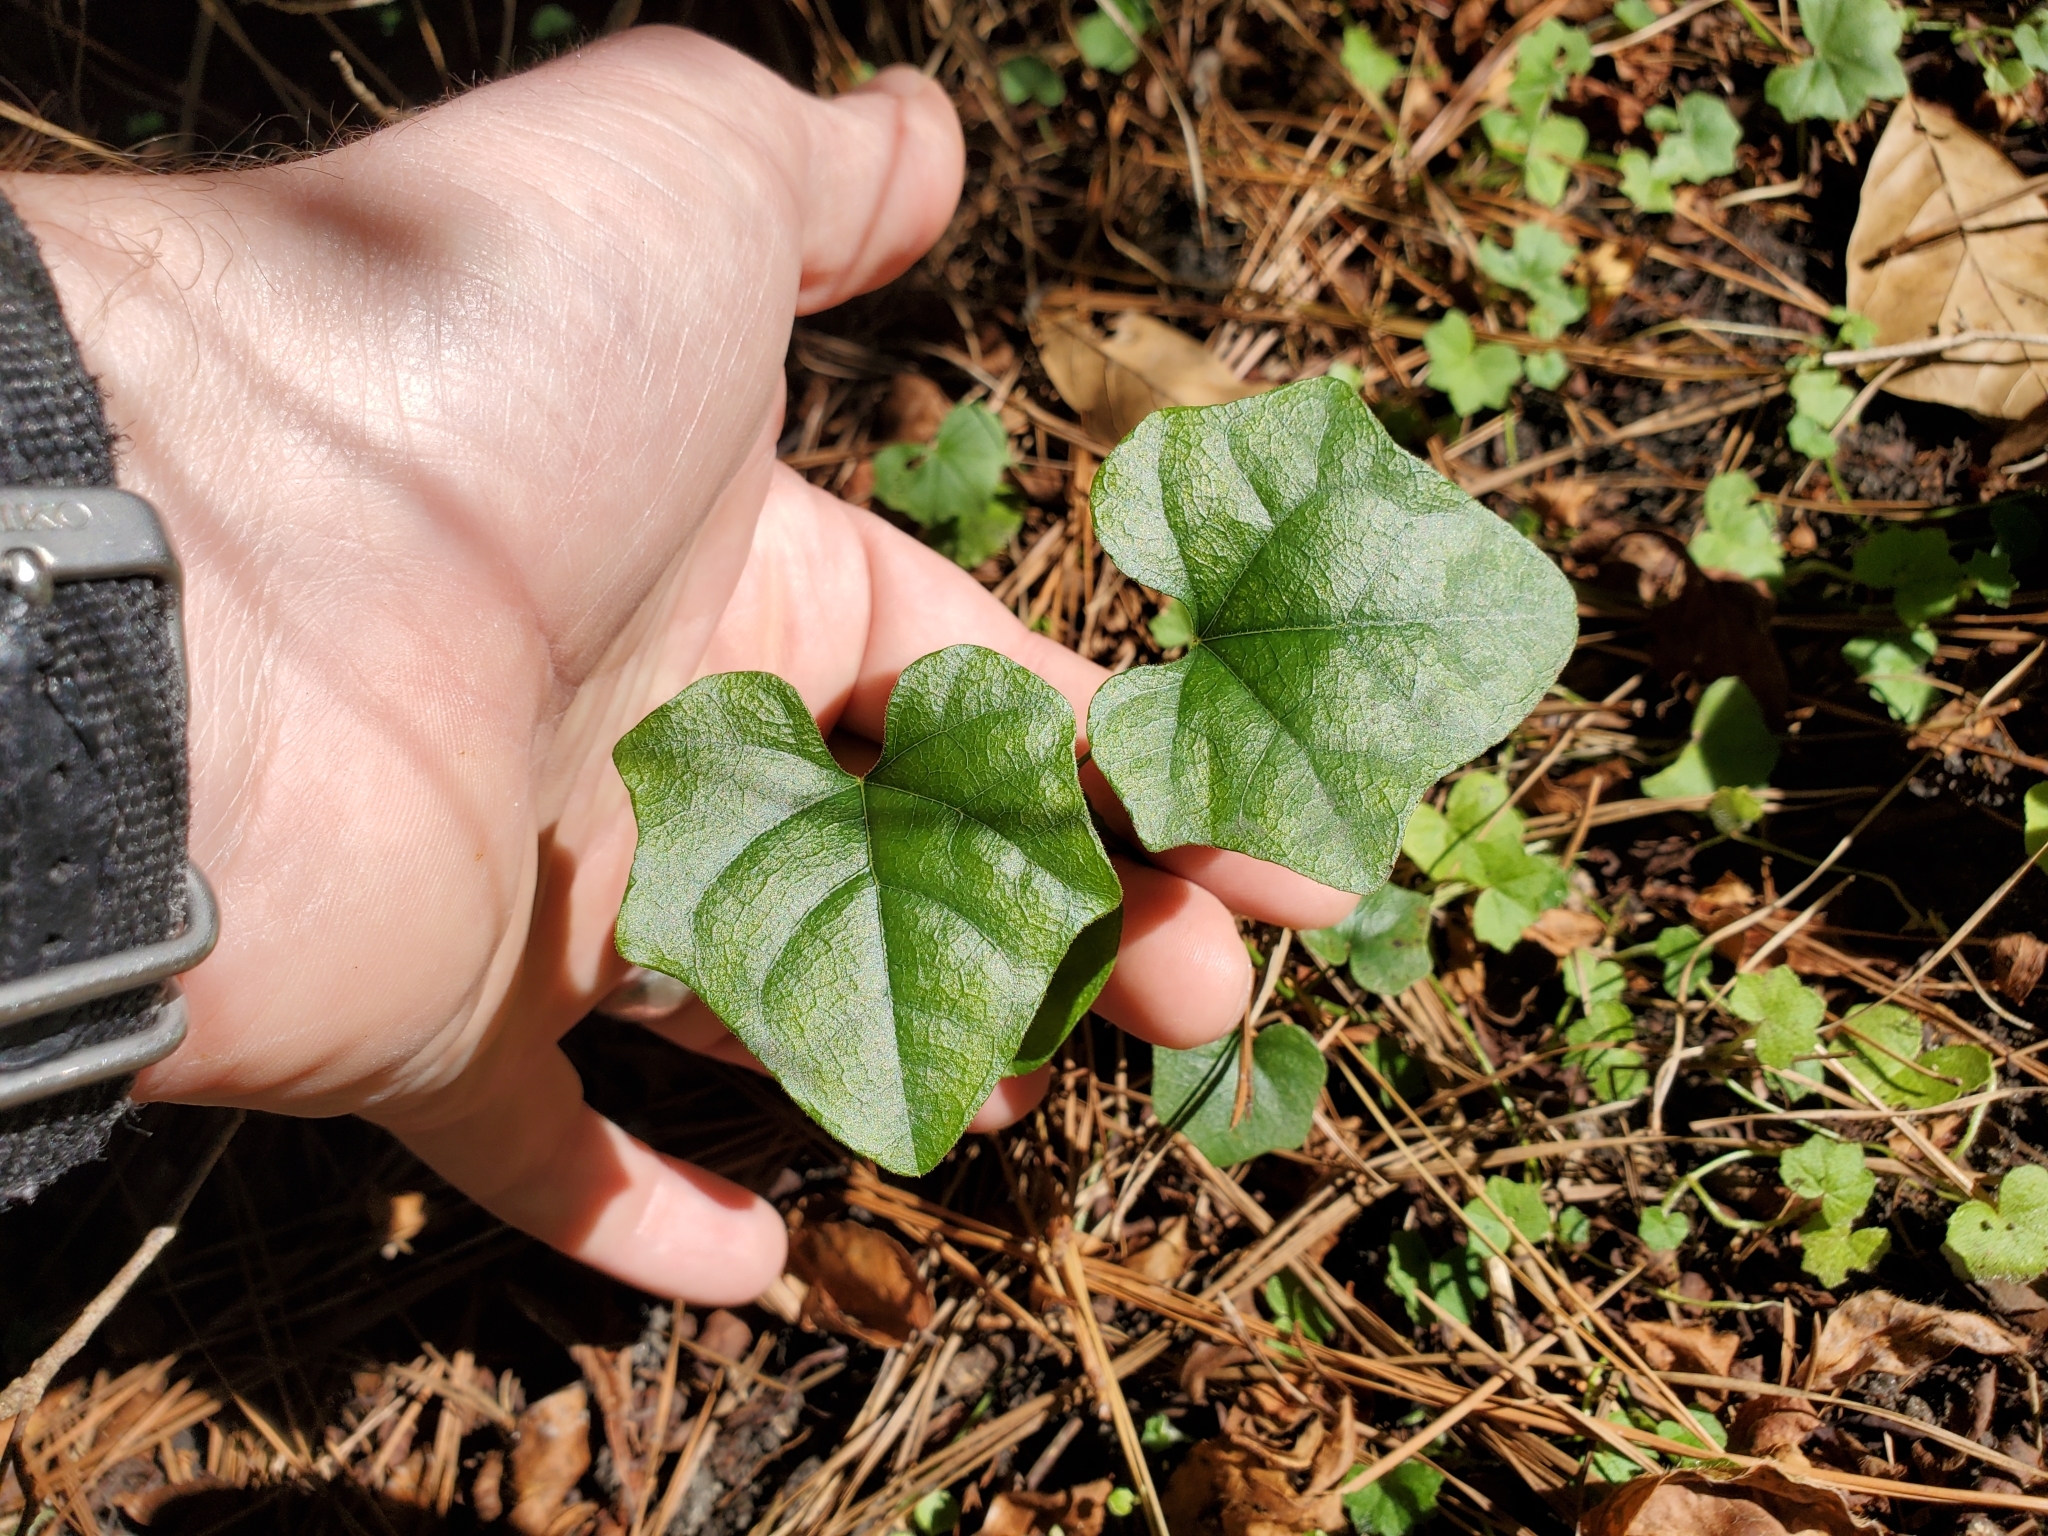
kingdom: Plantae
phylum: Tracheophyta
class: Magnoliopsida
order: Ranunculales
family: Menispermaceae
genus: Cocculus
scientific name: Cocculus carolinus
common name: Carolina moonseed
